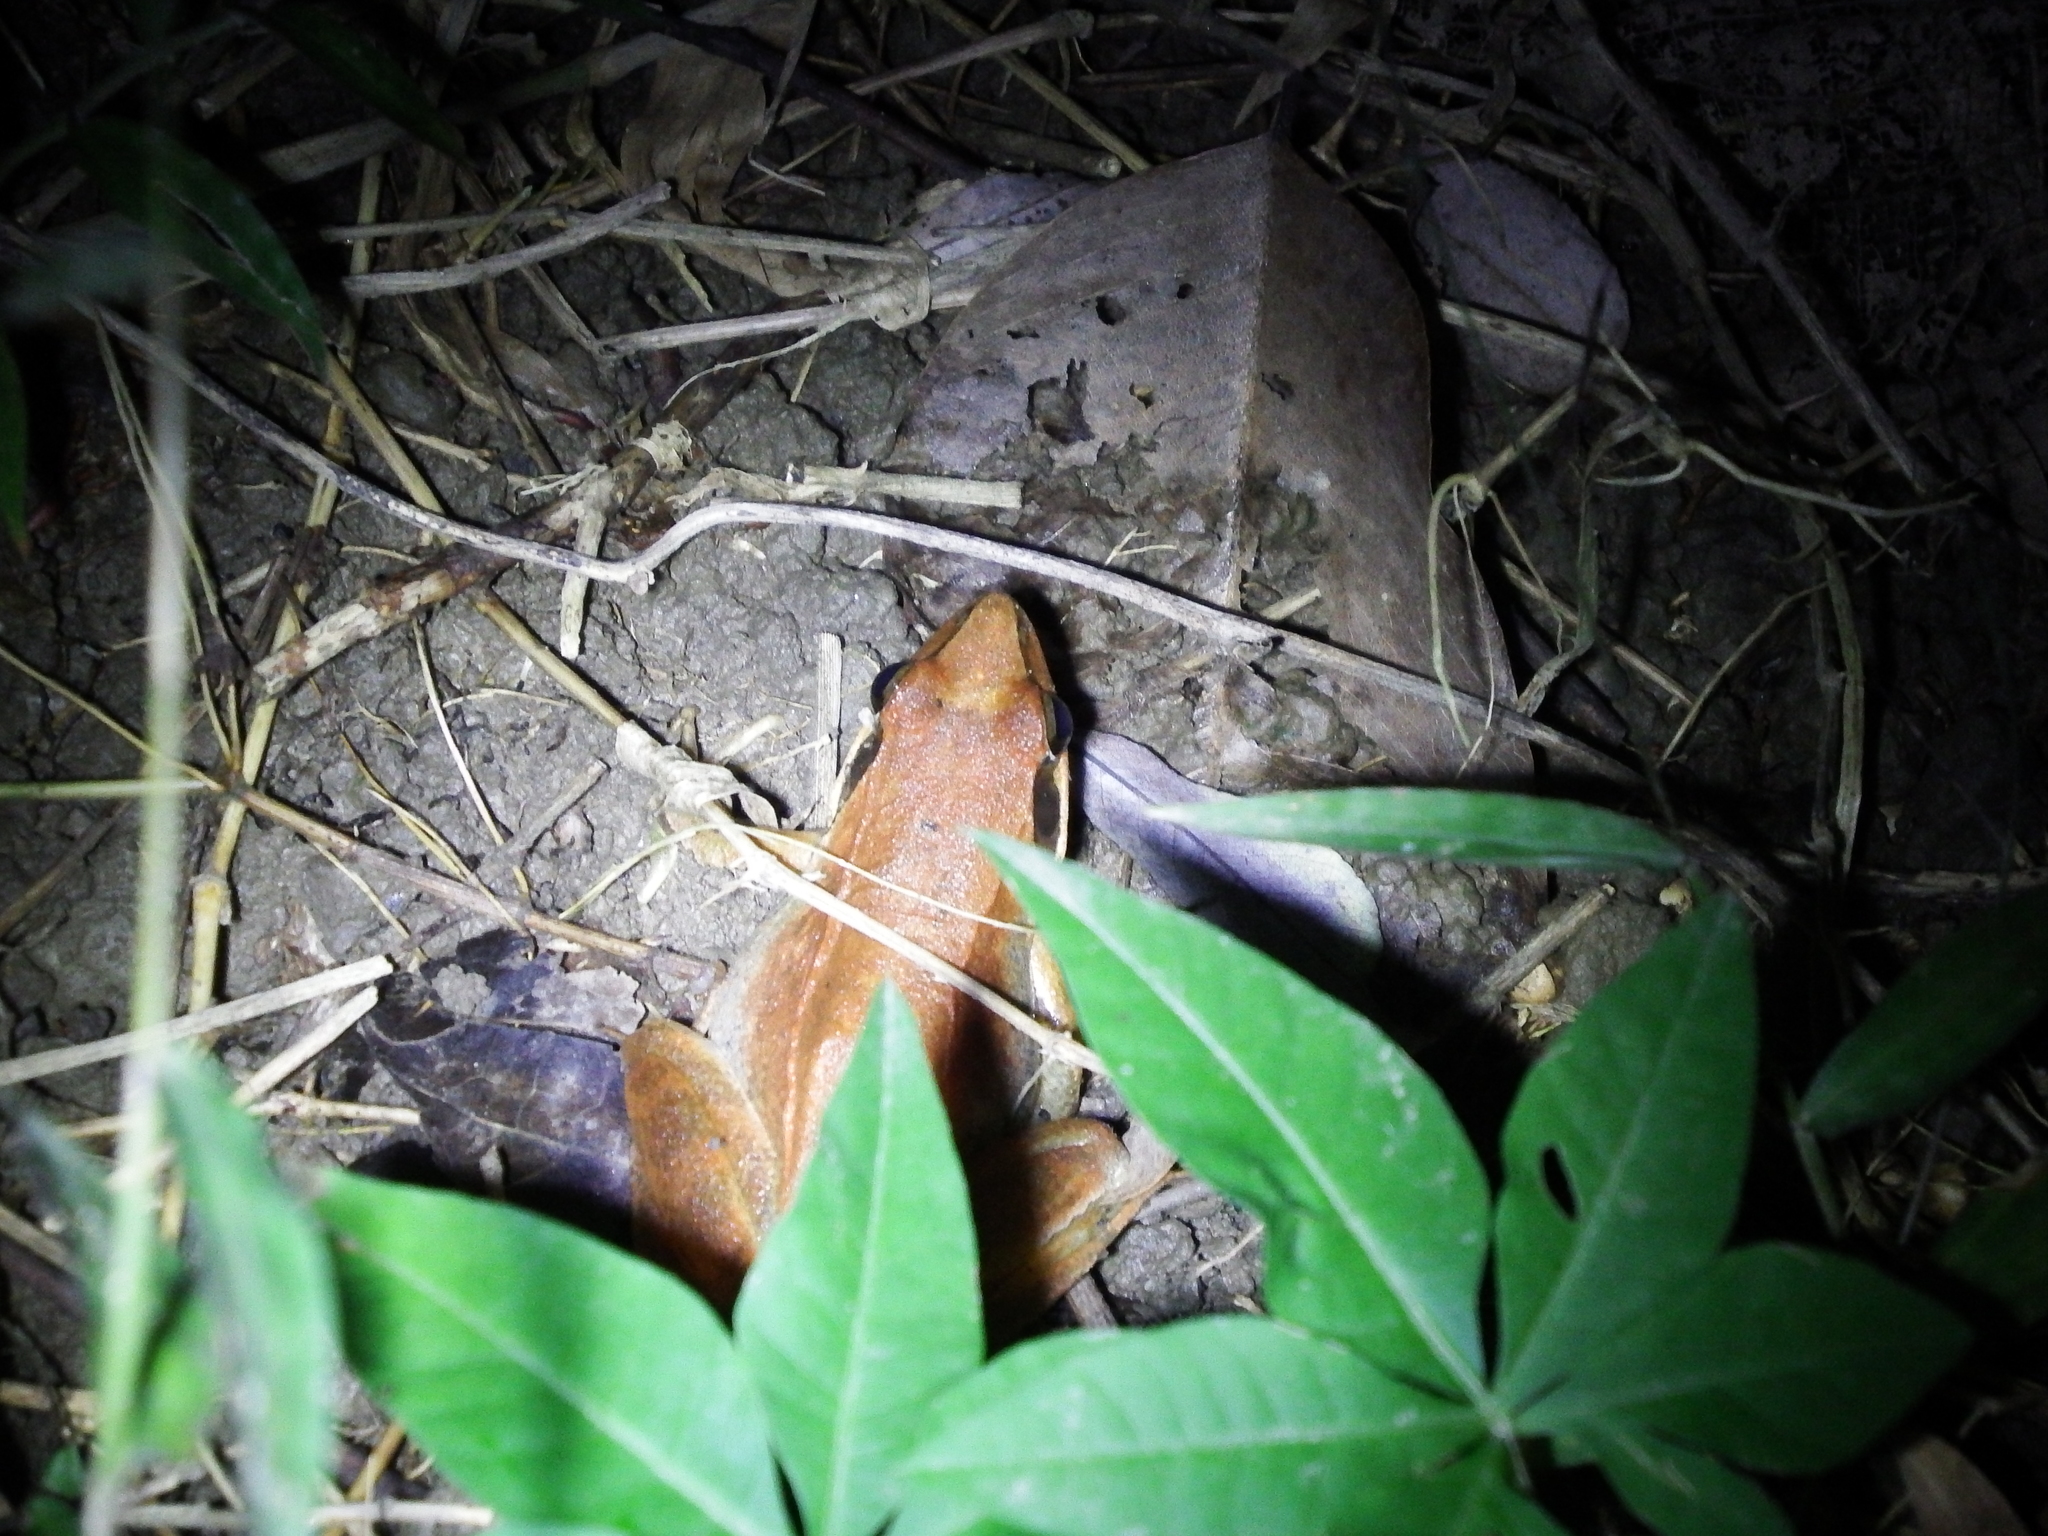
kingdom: Animalia
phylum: Chordata
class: Amphibia
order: Anura
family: Ranidae
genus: Rana
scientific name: Rana longicrus
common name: Long-legged brown frog
